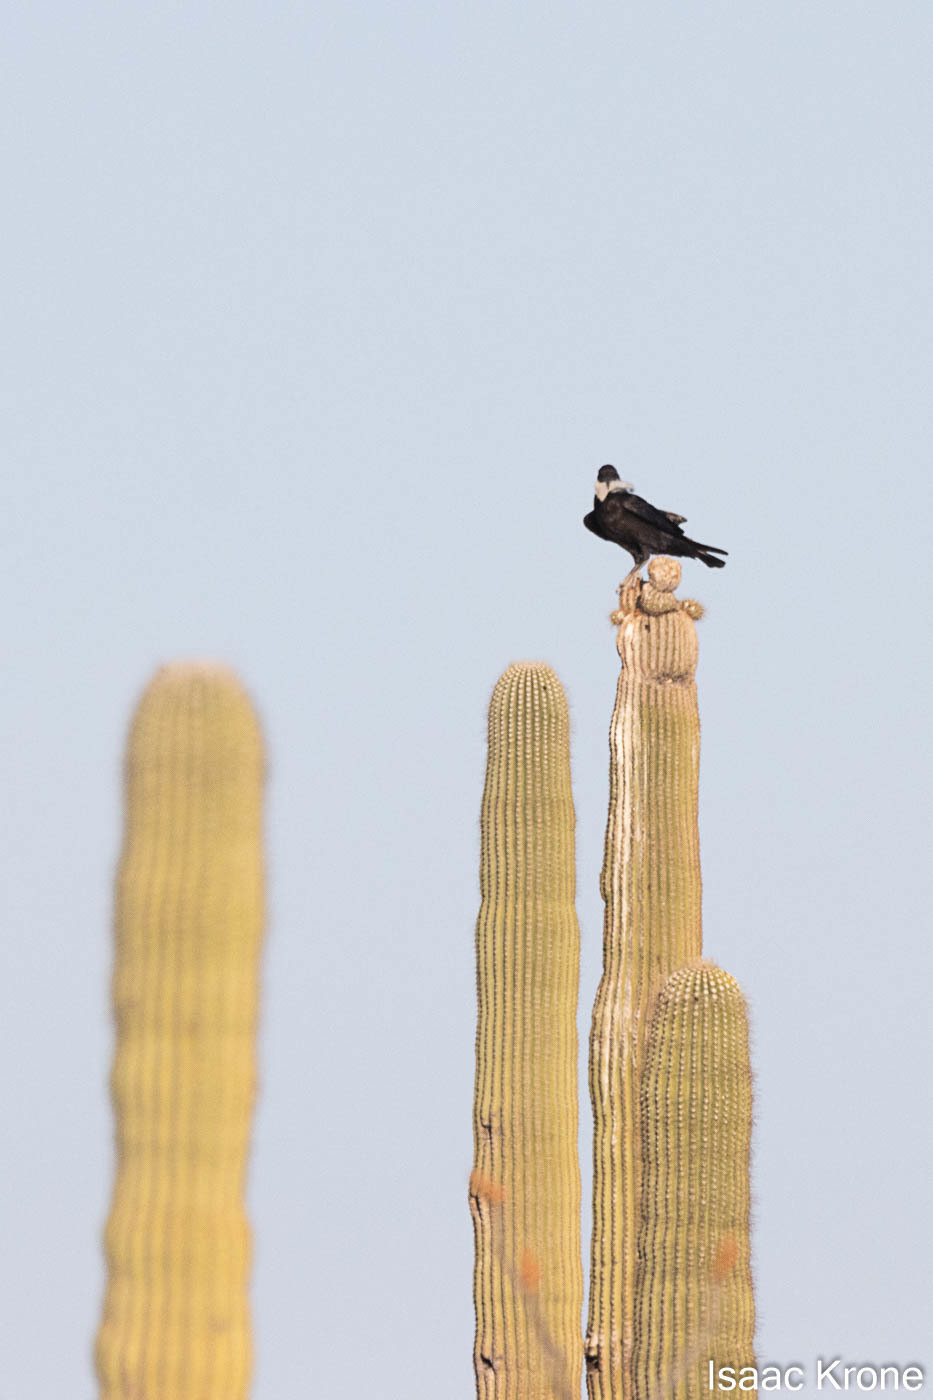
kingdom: Animalia
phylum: Chordata
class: Aves
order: Passeriformes
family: Corvidae
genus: Corvus
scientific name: Corvus corax
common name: Common raven
